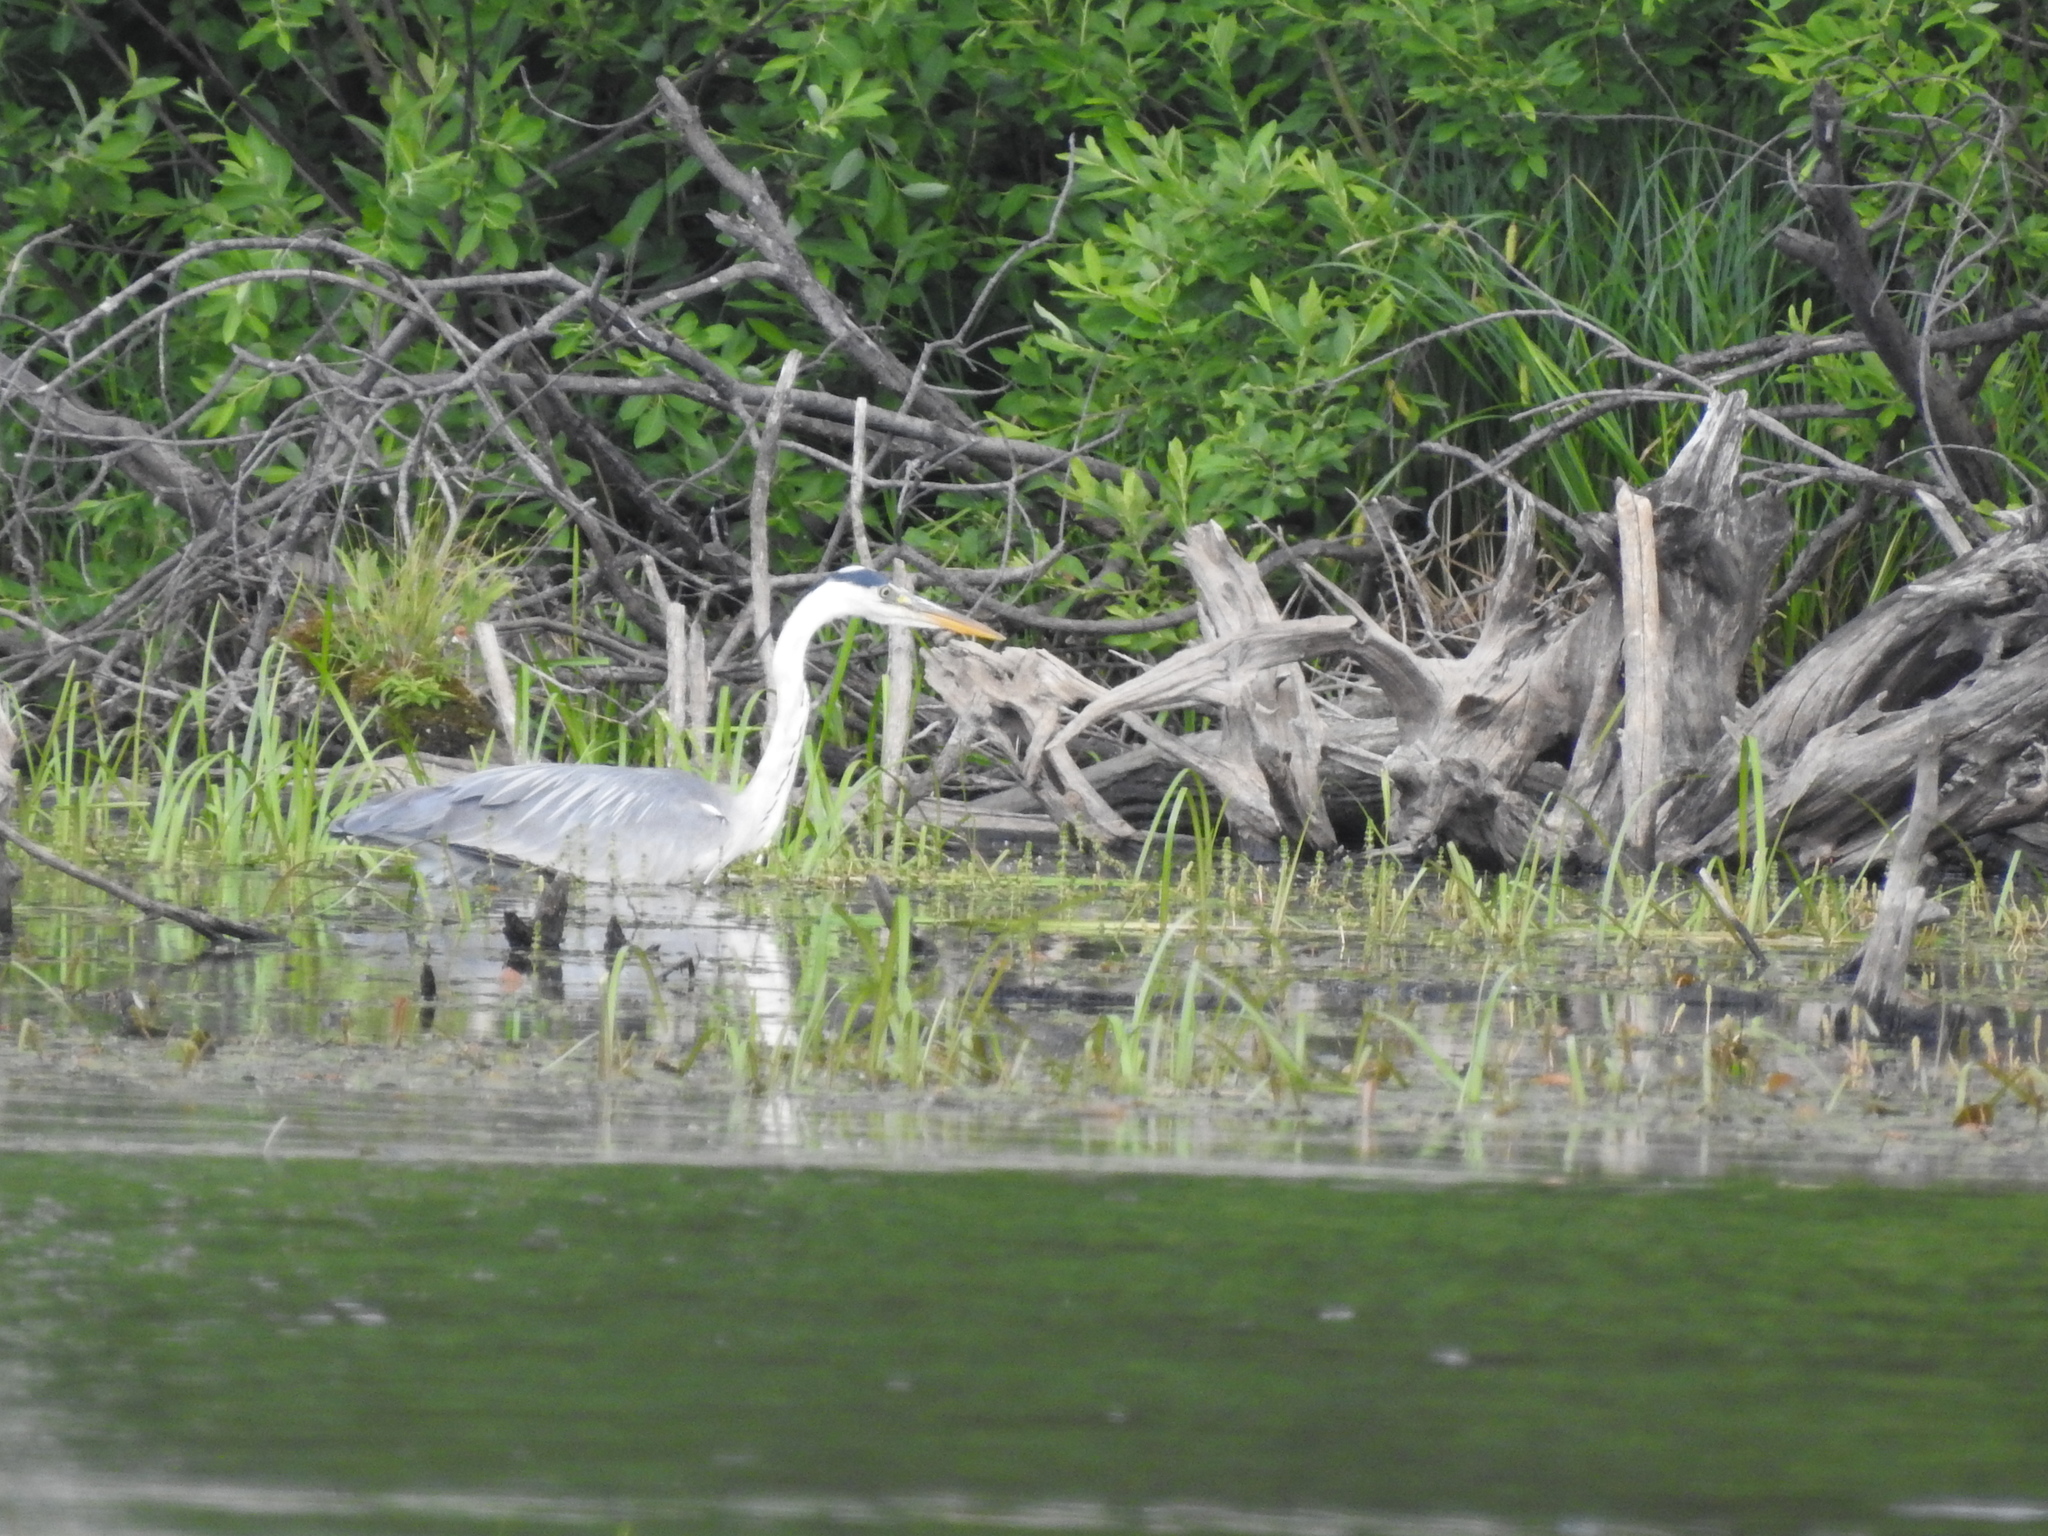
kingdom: Animalia
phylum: Chordata
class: Aves
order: Pelecaniformes
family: Ardeidae
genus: Ardea
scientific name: Ardea cinerea
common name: Grey heron
